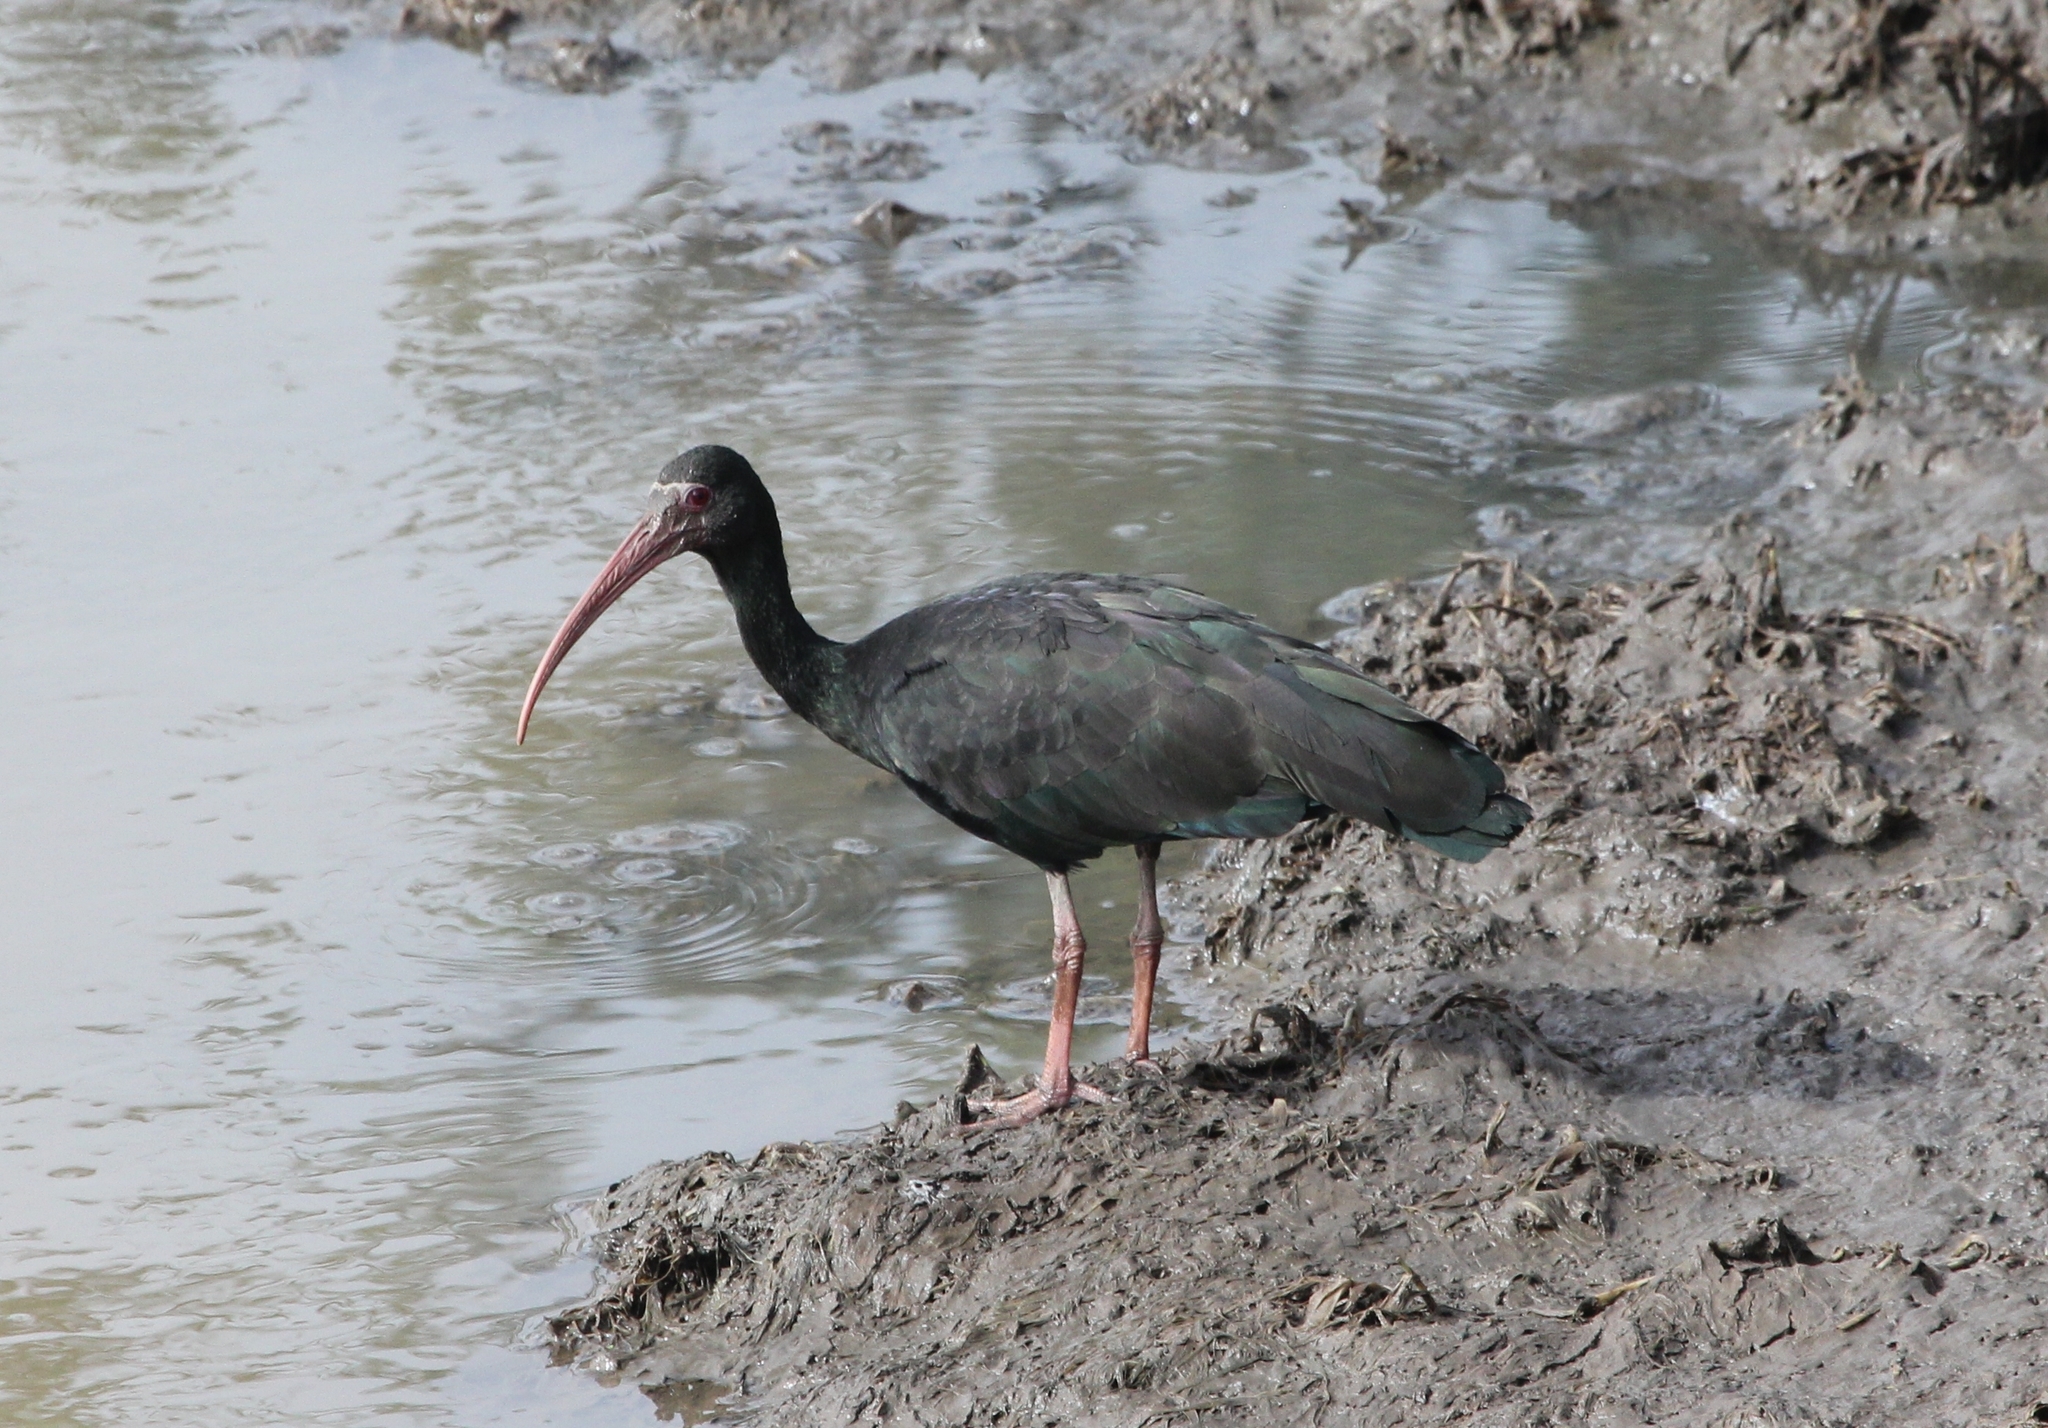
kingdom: Animalia
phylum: Chordata
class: Aves
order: Pelecaniformes
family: Threskiornithidae
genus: Phimosus
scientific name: Phimosus infuscatus
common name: Bare-faced ibis
